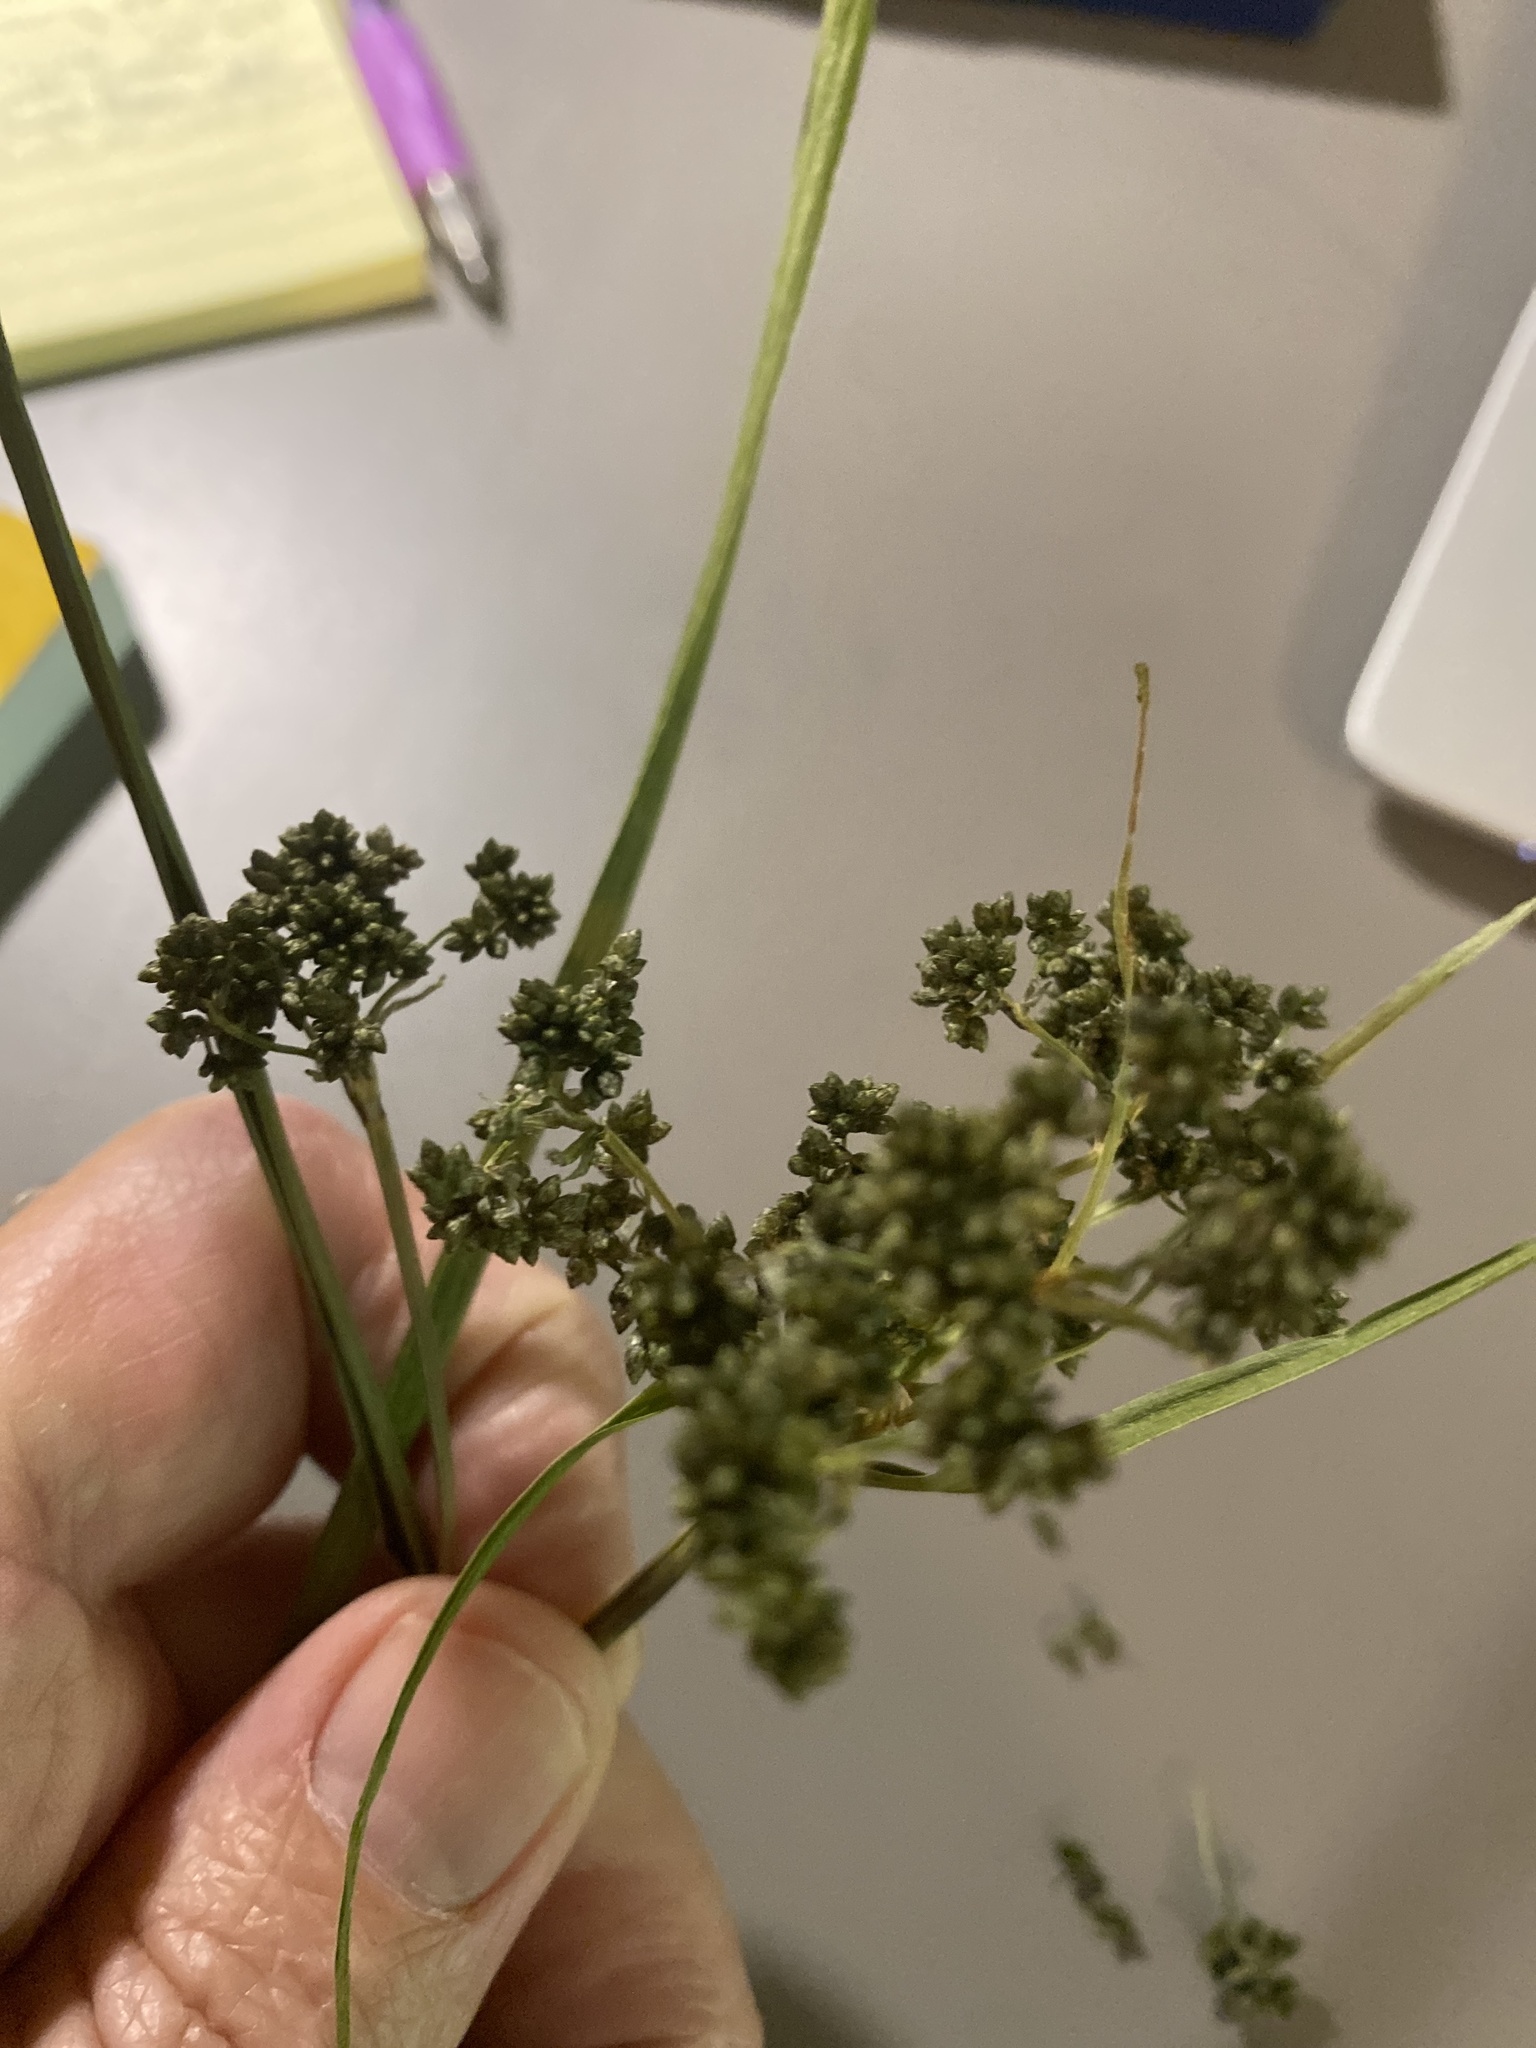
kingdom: Plantae
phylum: Tracheophyta
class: Liliopsida
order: Poales
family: Cyperaceae
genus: Scirpus
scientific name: Scirpus microcarpus
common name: Panicled bulrush
